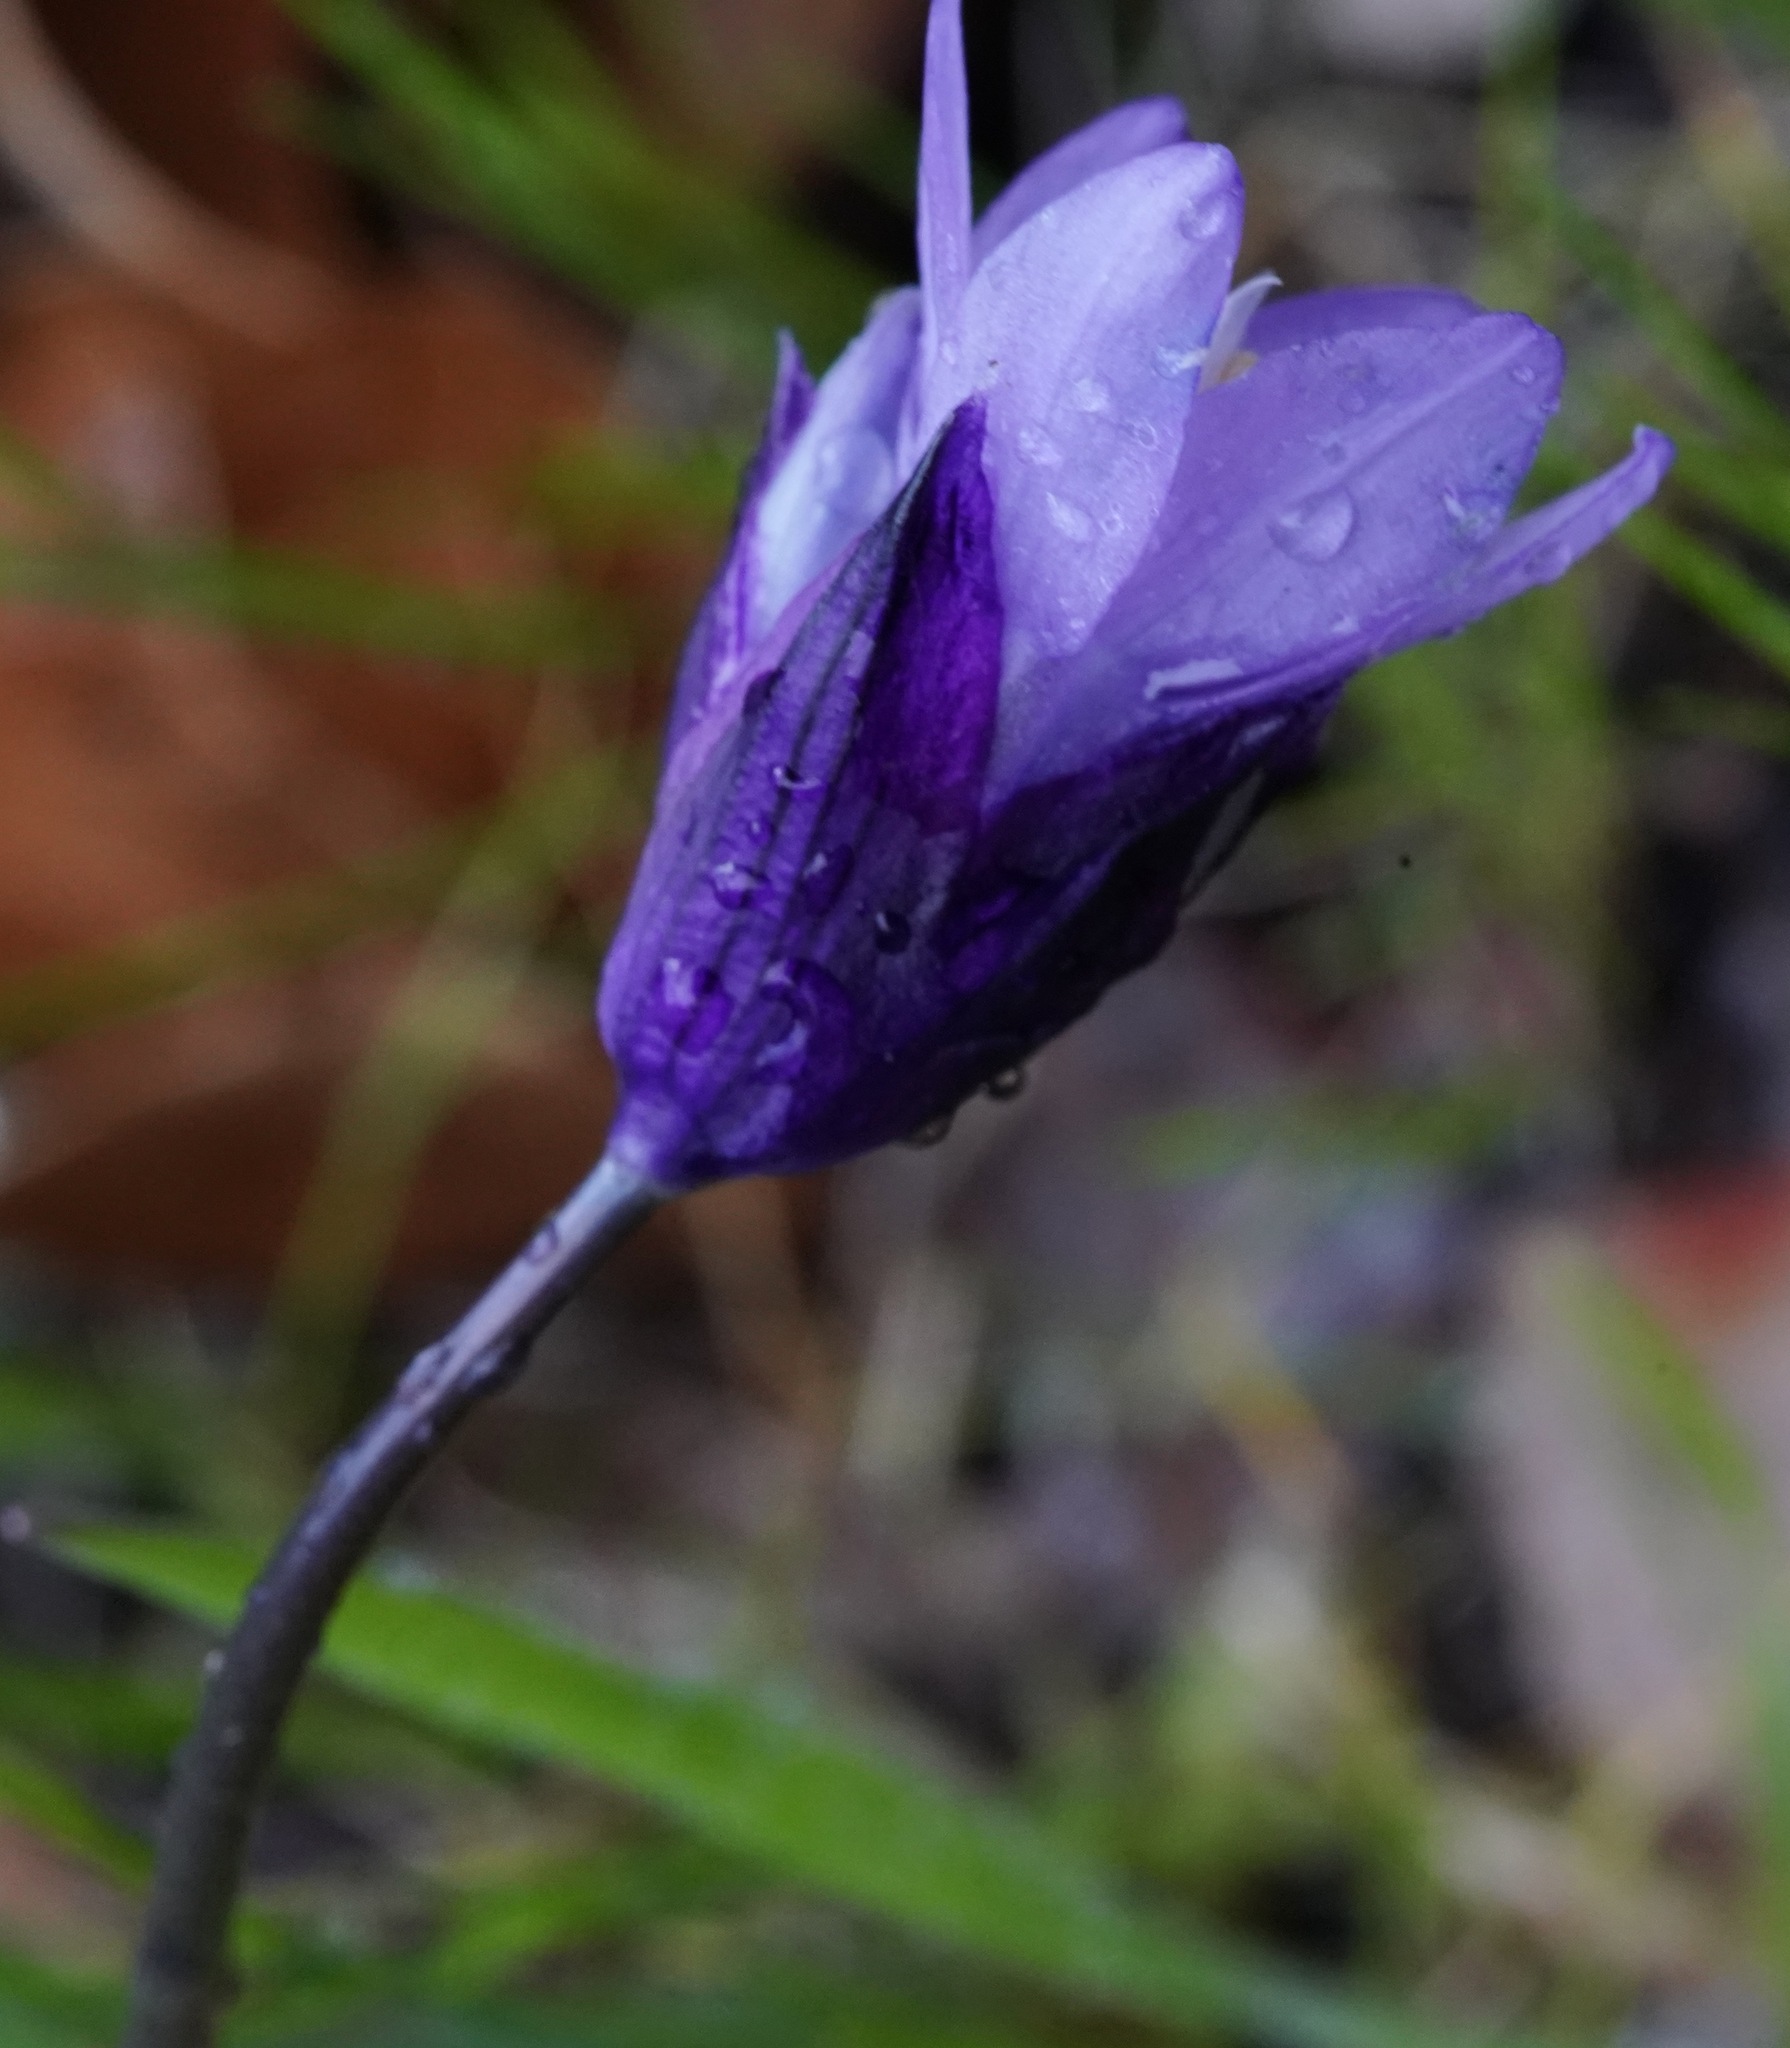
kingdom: Plantae
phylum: Tracheophyta
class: Liliopsida
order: Asparagales
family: Asparagaceae
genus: Dipterostemon
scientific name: Dipterostemon capitatus
